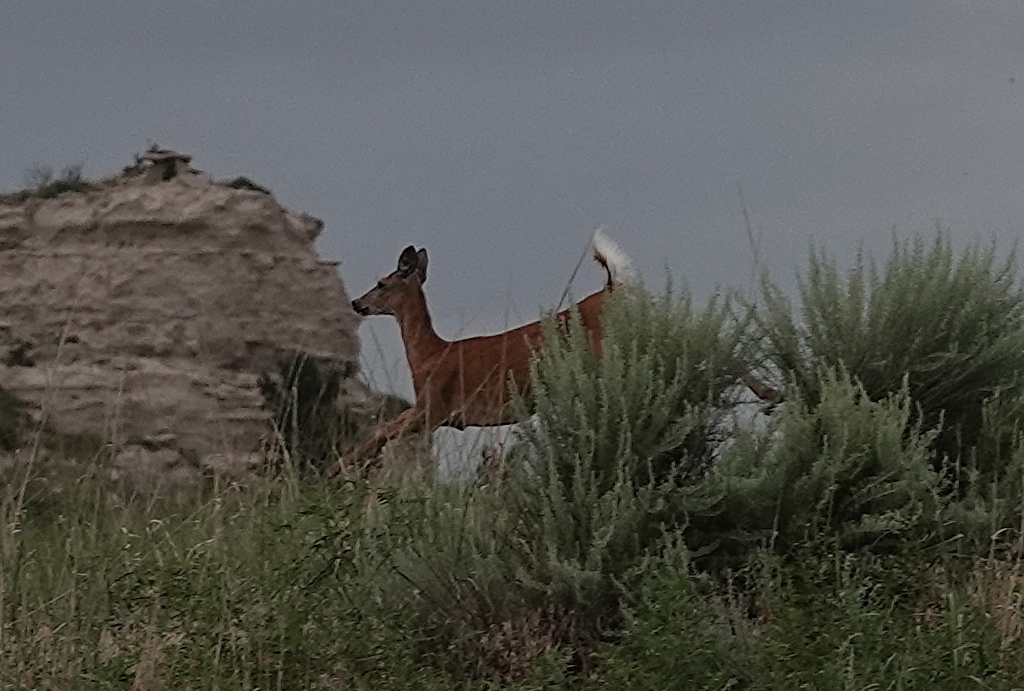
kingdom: Animalia
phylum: Chordata
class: Mammalia
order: Artiodactyla
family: Cervidae
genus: Odocoileus
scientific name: Odocoileus virginianus
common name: White-tailed deer
